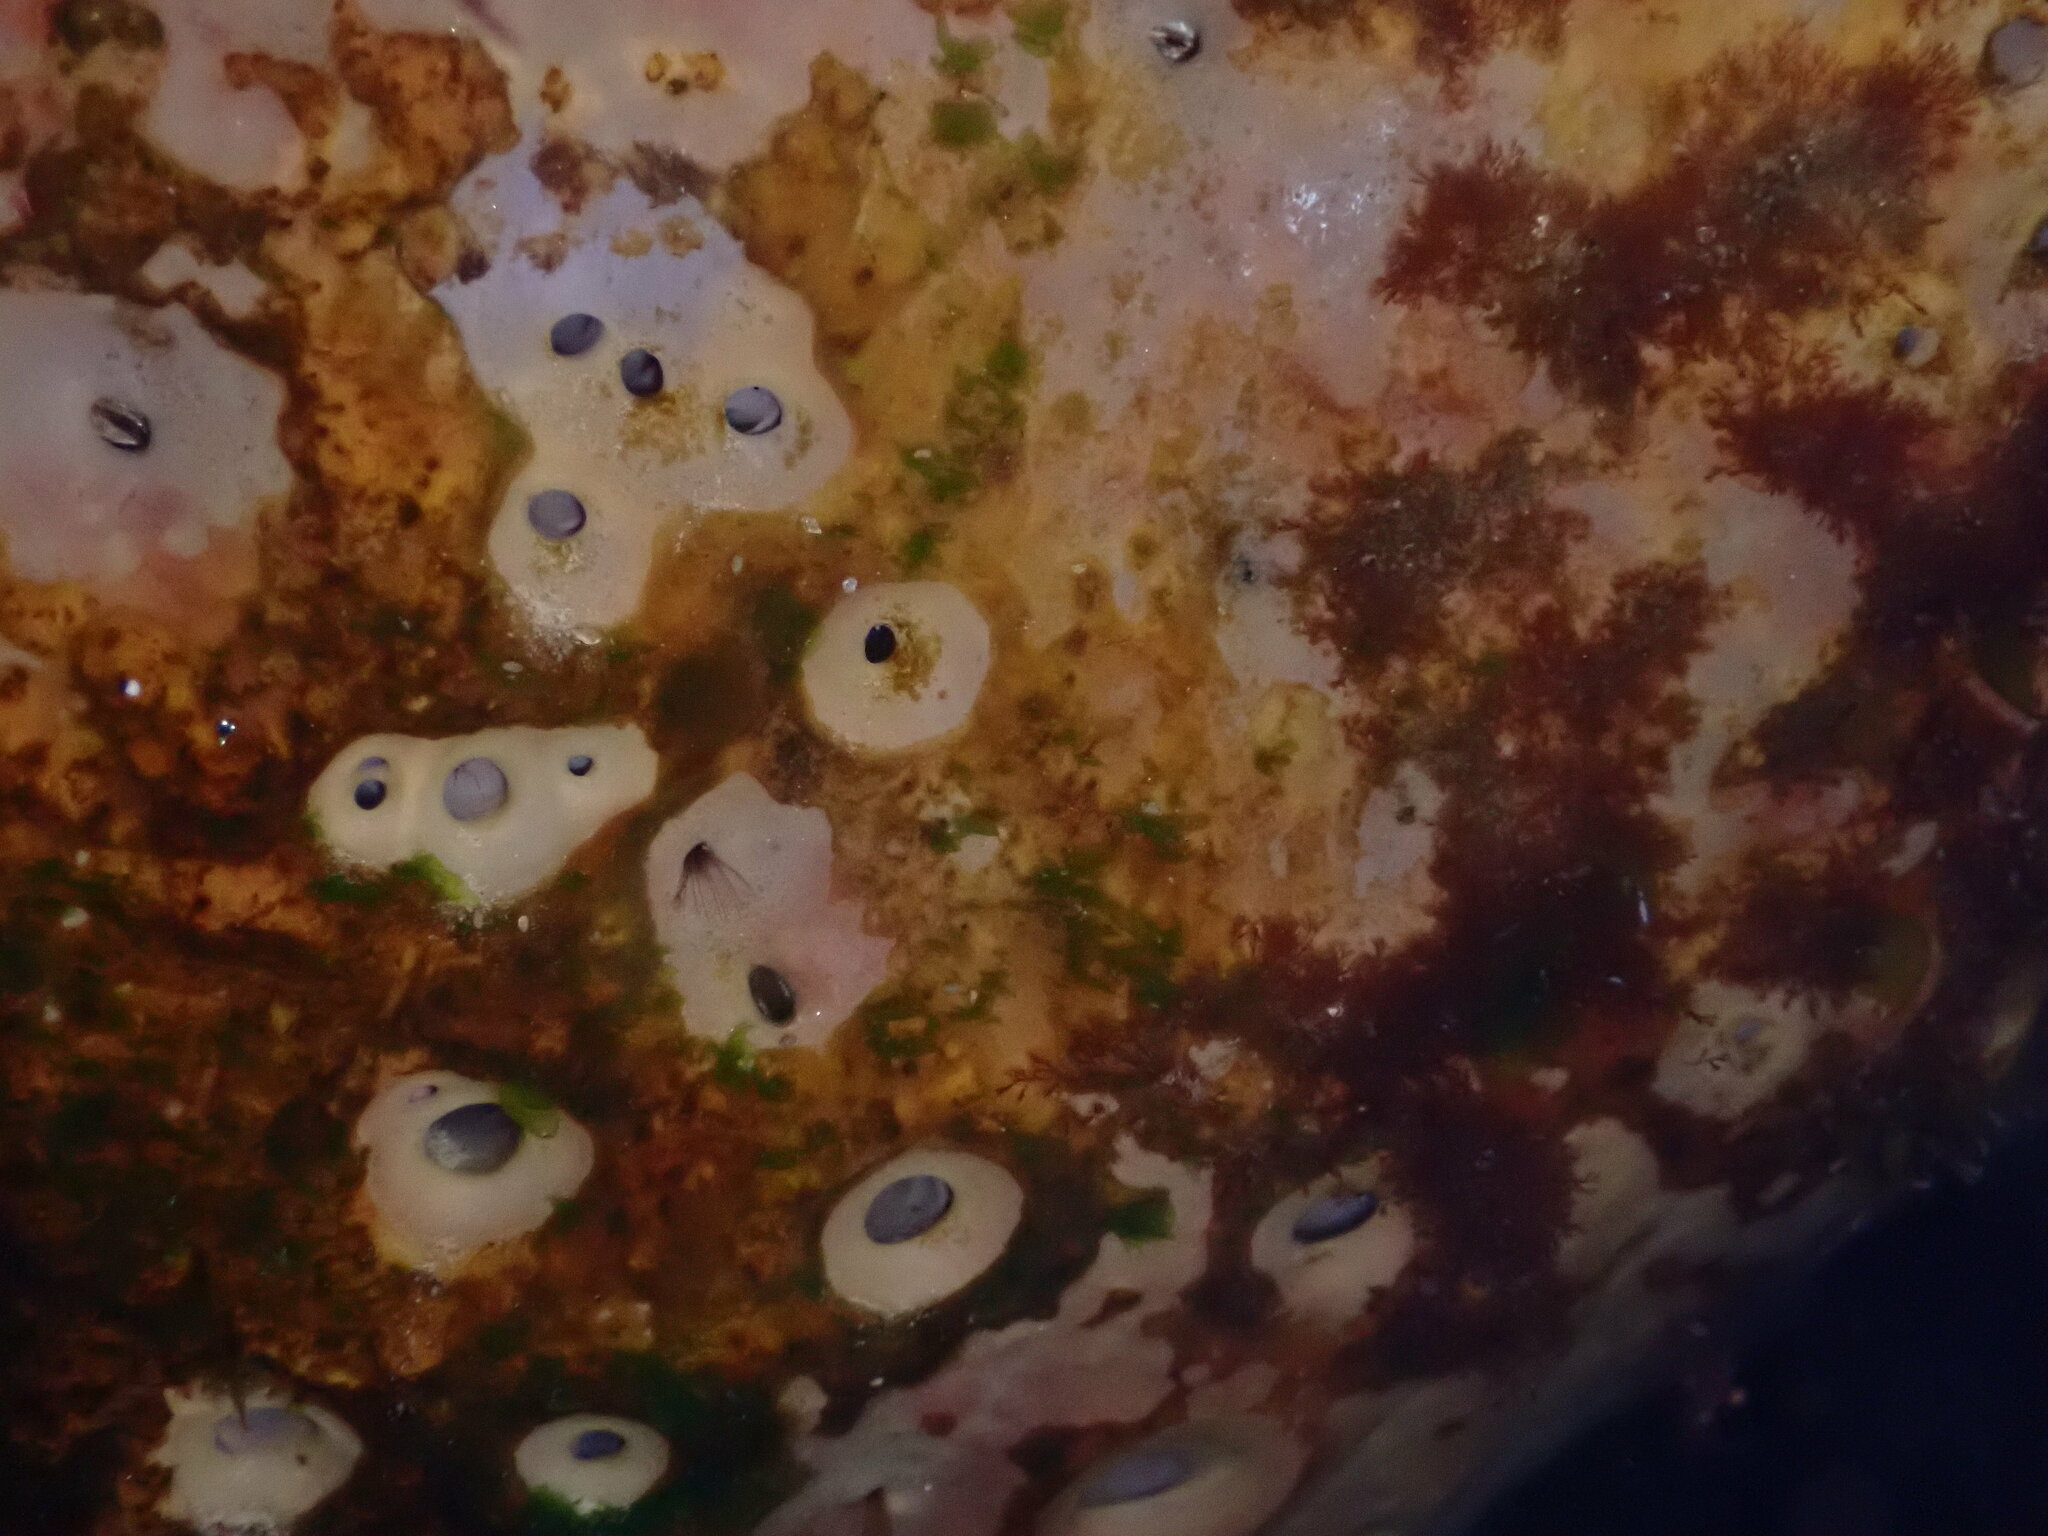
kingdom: Animalia
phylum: Porifera
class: Demospongiae
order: Clionaida
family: Clionaidae
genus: Spheciospongia
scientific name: Spheciospongia confoederata
